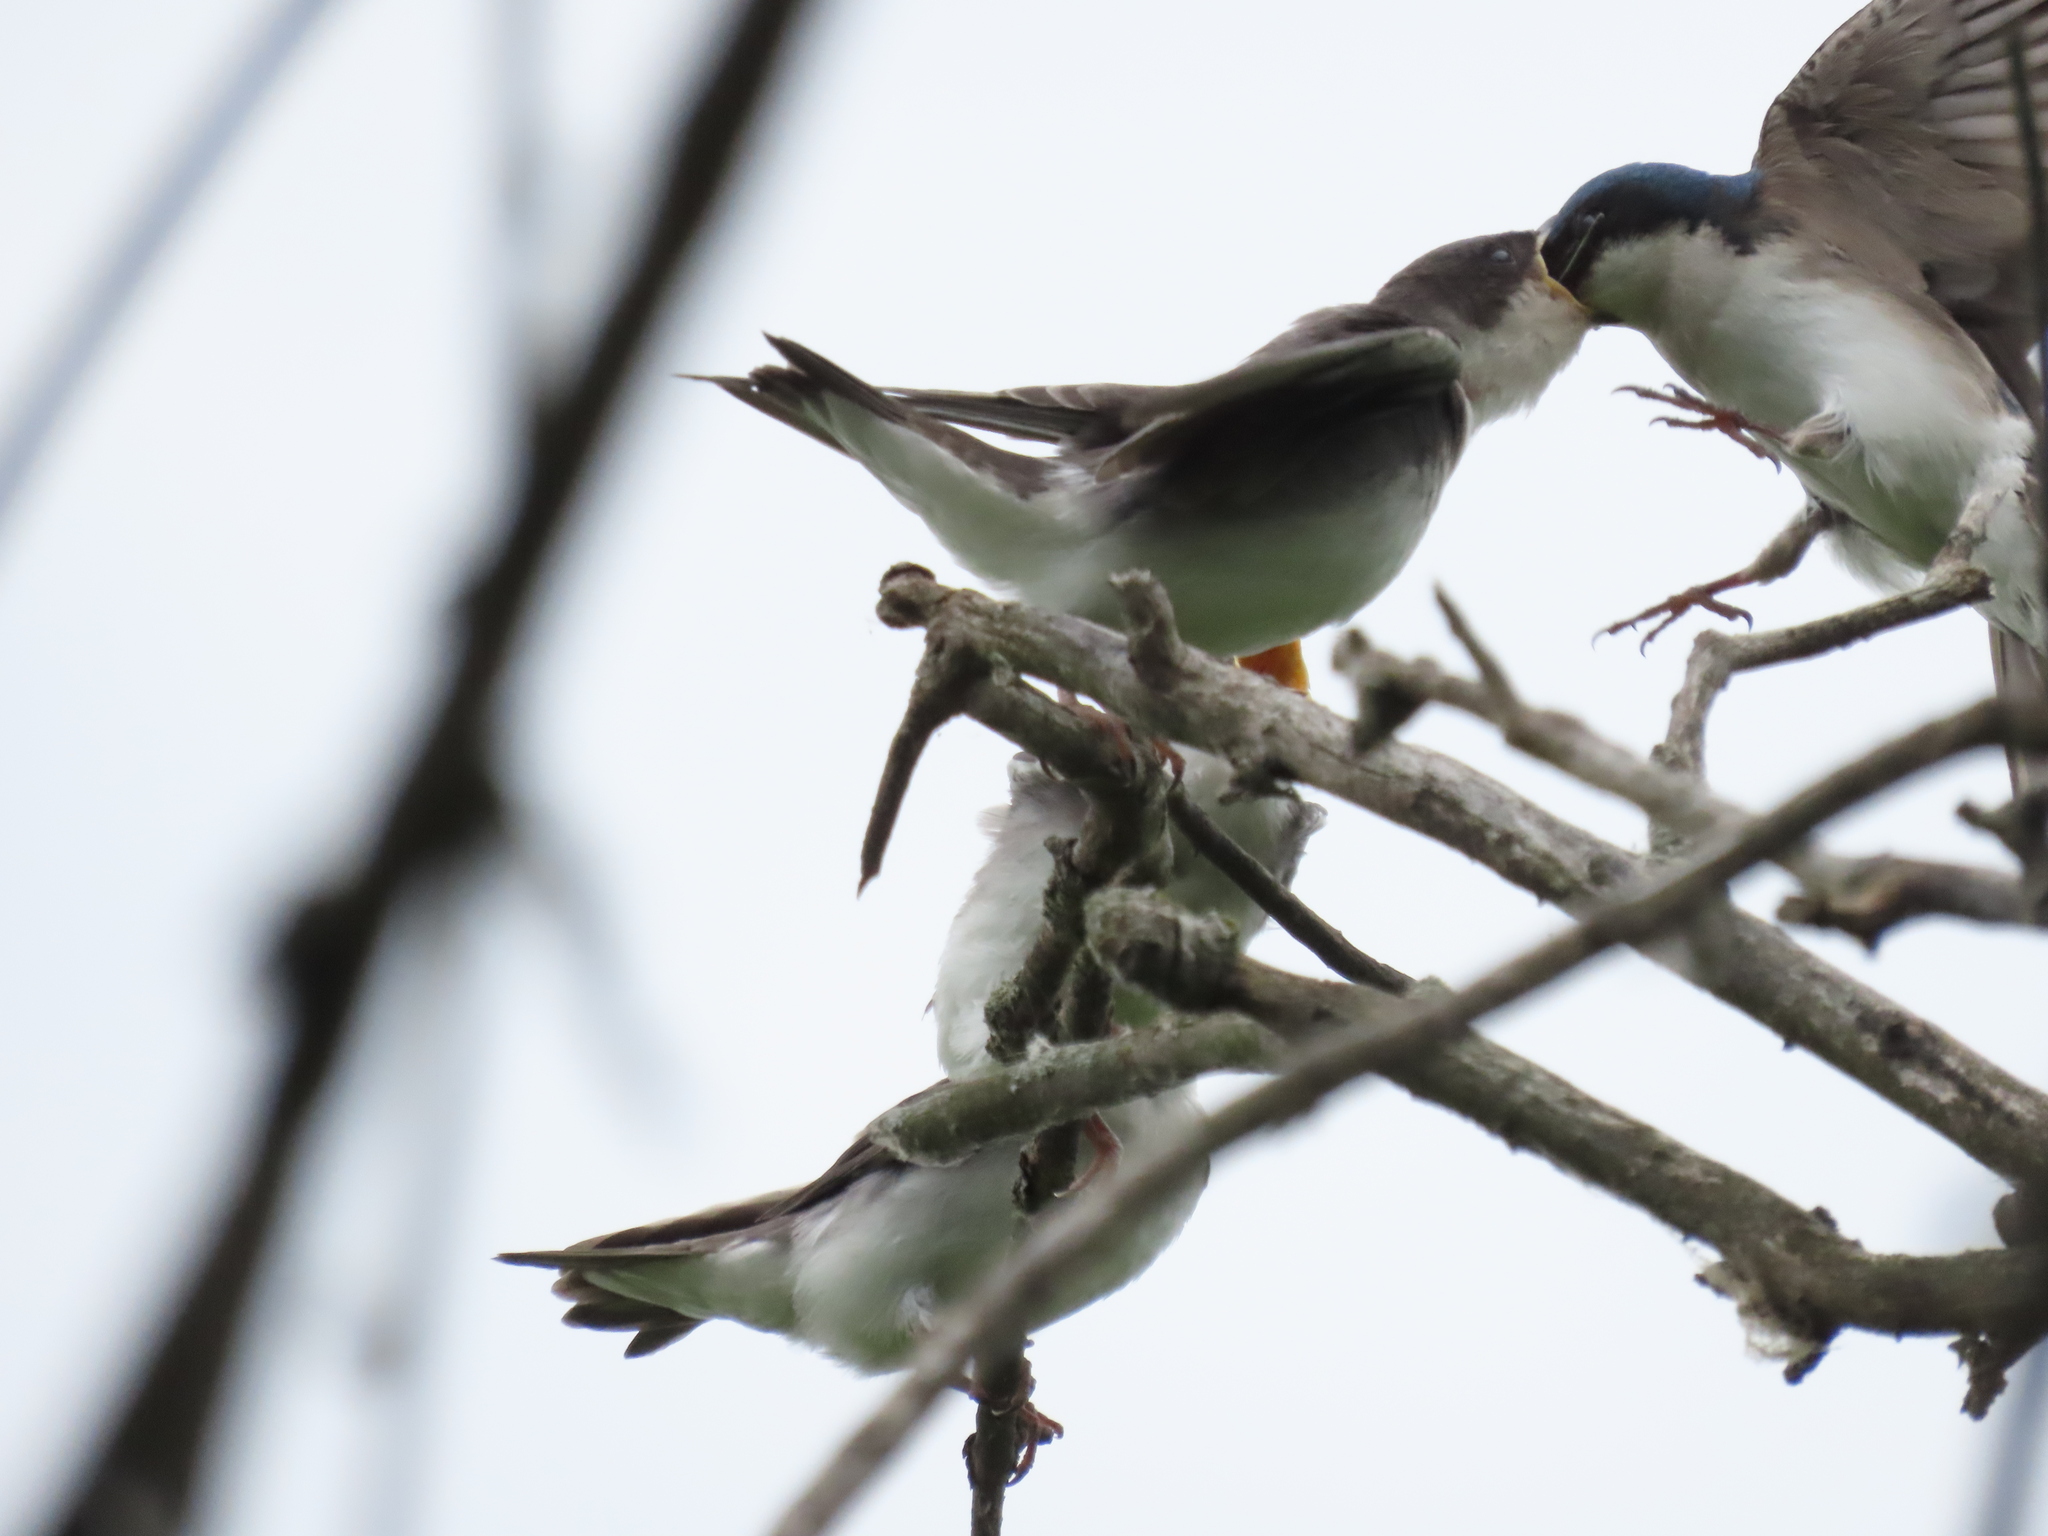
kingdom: Animalia
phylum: Chordata
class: Aves
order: Passeriformes
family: Hirundinidae
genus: Tachycineta
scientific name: Tachycineta bicolor
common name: Tree swallow
